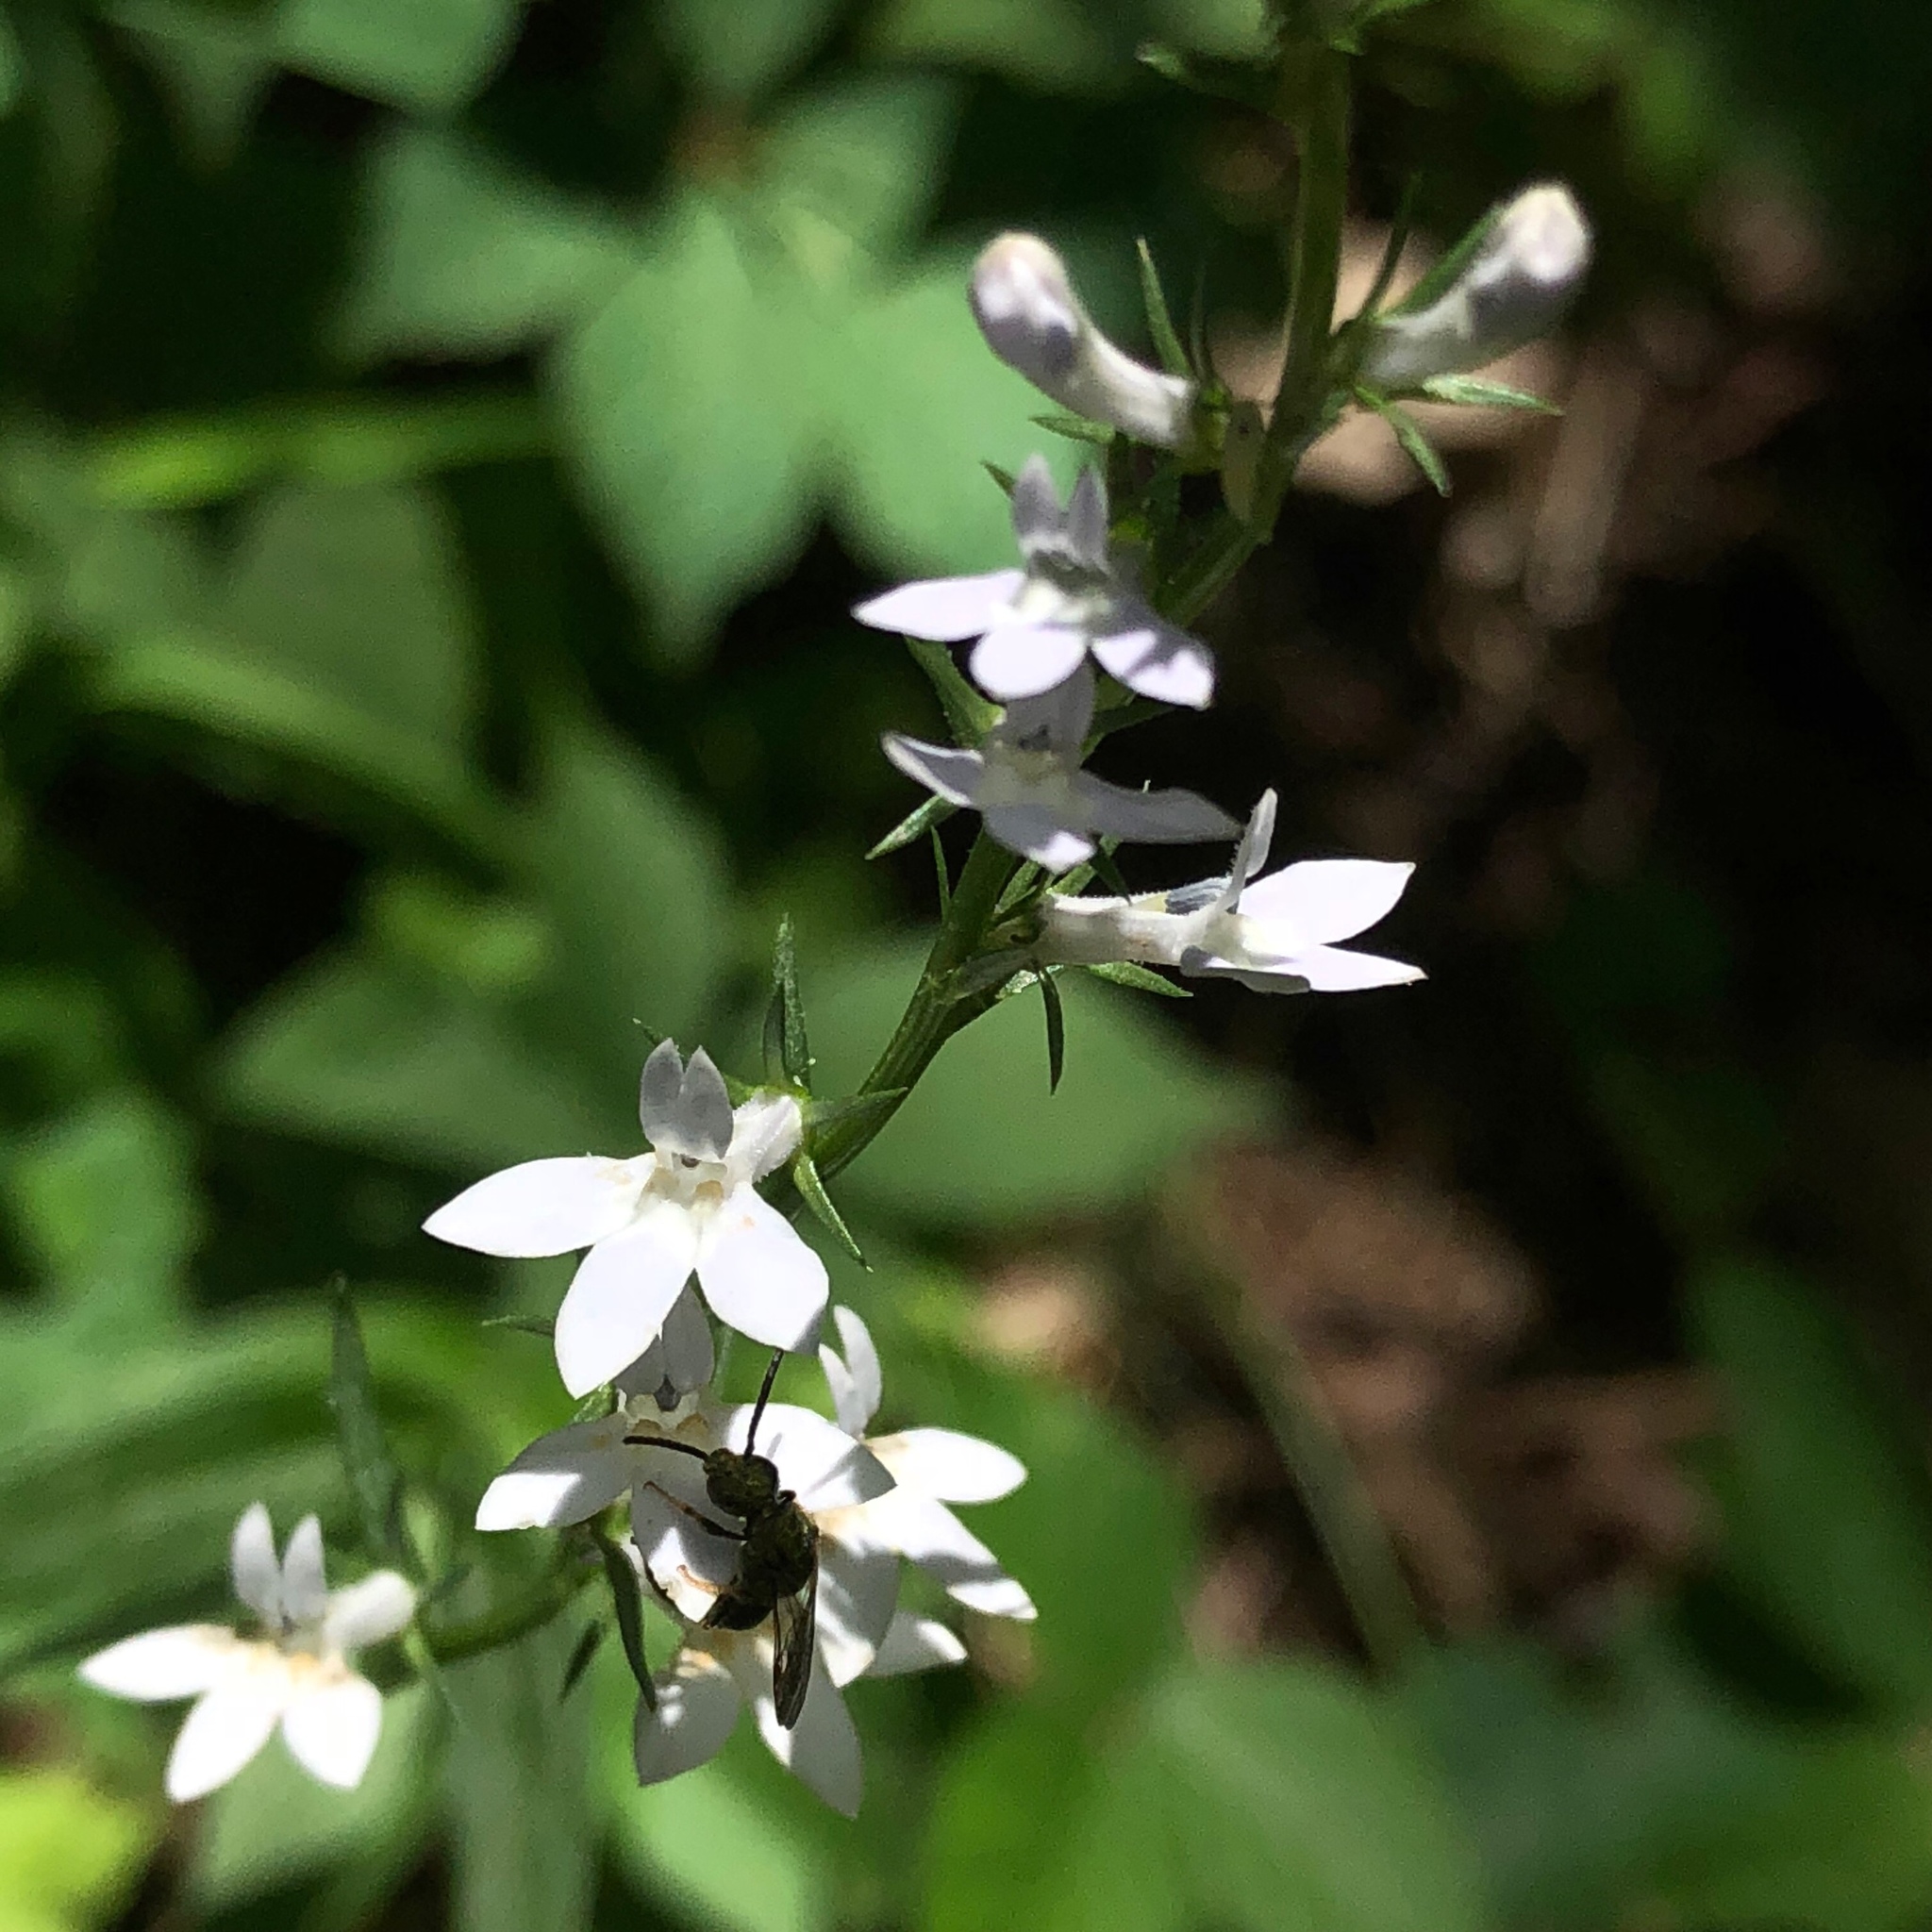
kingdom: Plantae
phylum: Tracheophyta
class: Magnoliopsida
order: Asterales
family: Campanulaceae
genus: Lobelia
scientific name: Lobelia spicata
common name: Pale-spike lobelia
